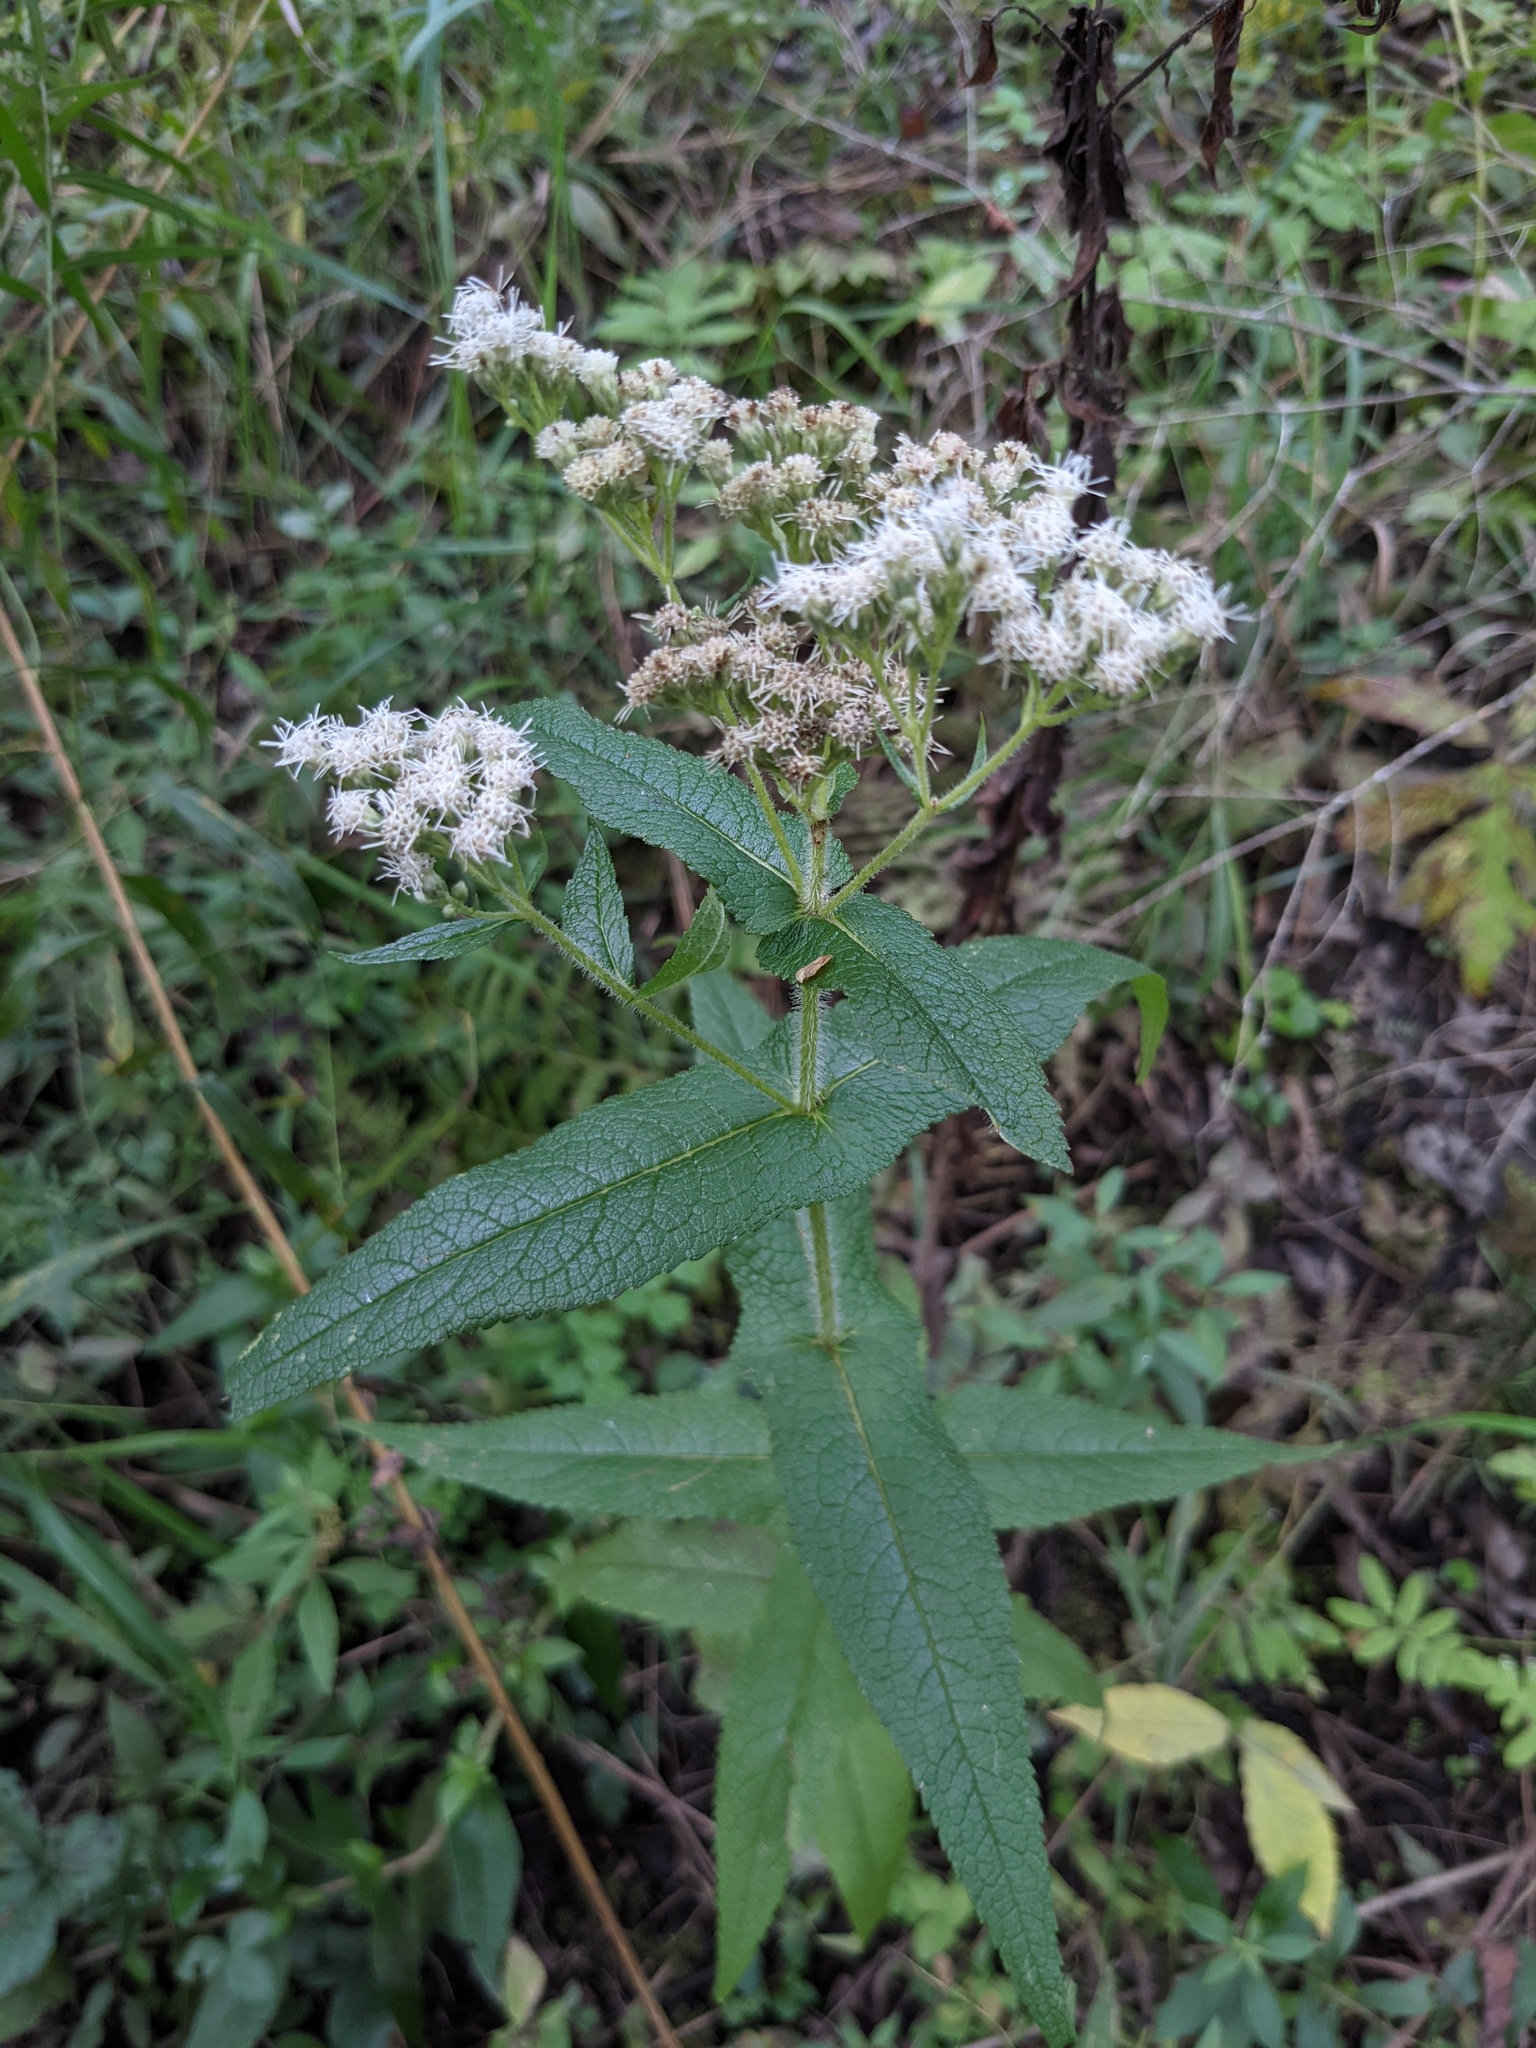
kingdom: Plantae
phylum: Tracheophyta
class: Magnoliopsida
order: Asterales
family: Asteraceae
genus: Eupatorium
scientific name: Eupatorium perfoliatum
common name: Boneset
